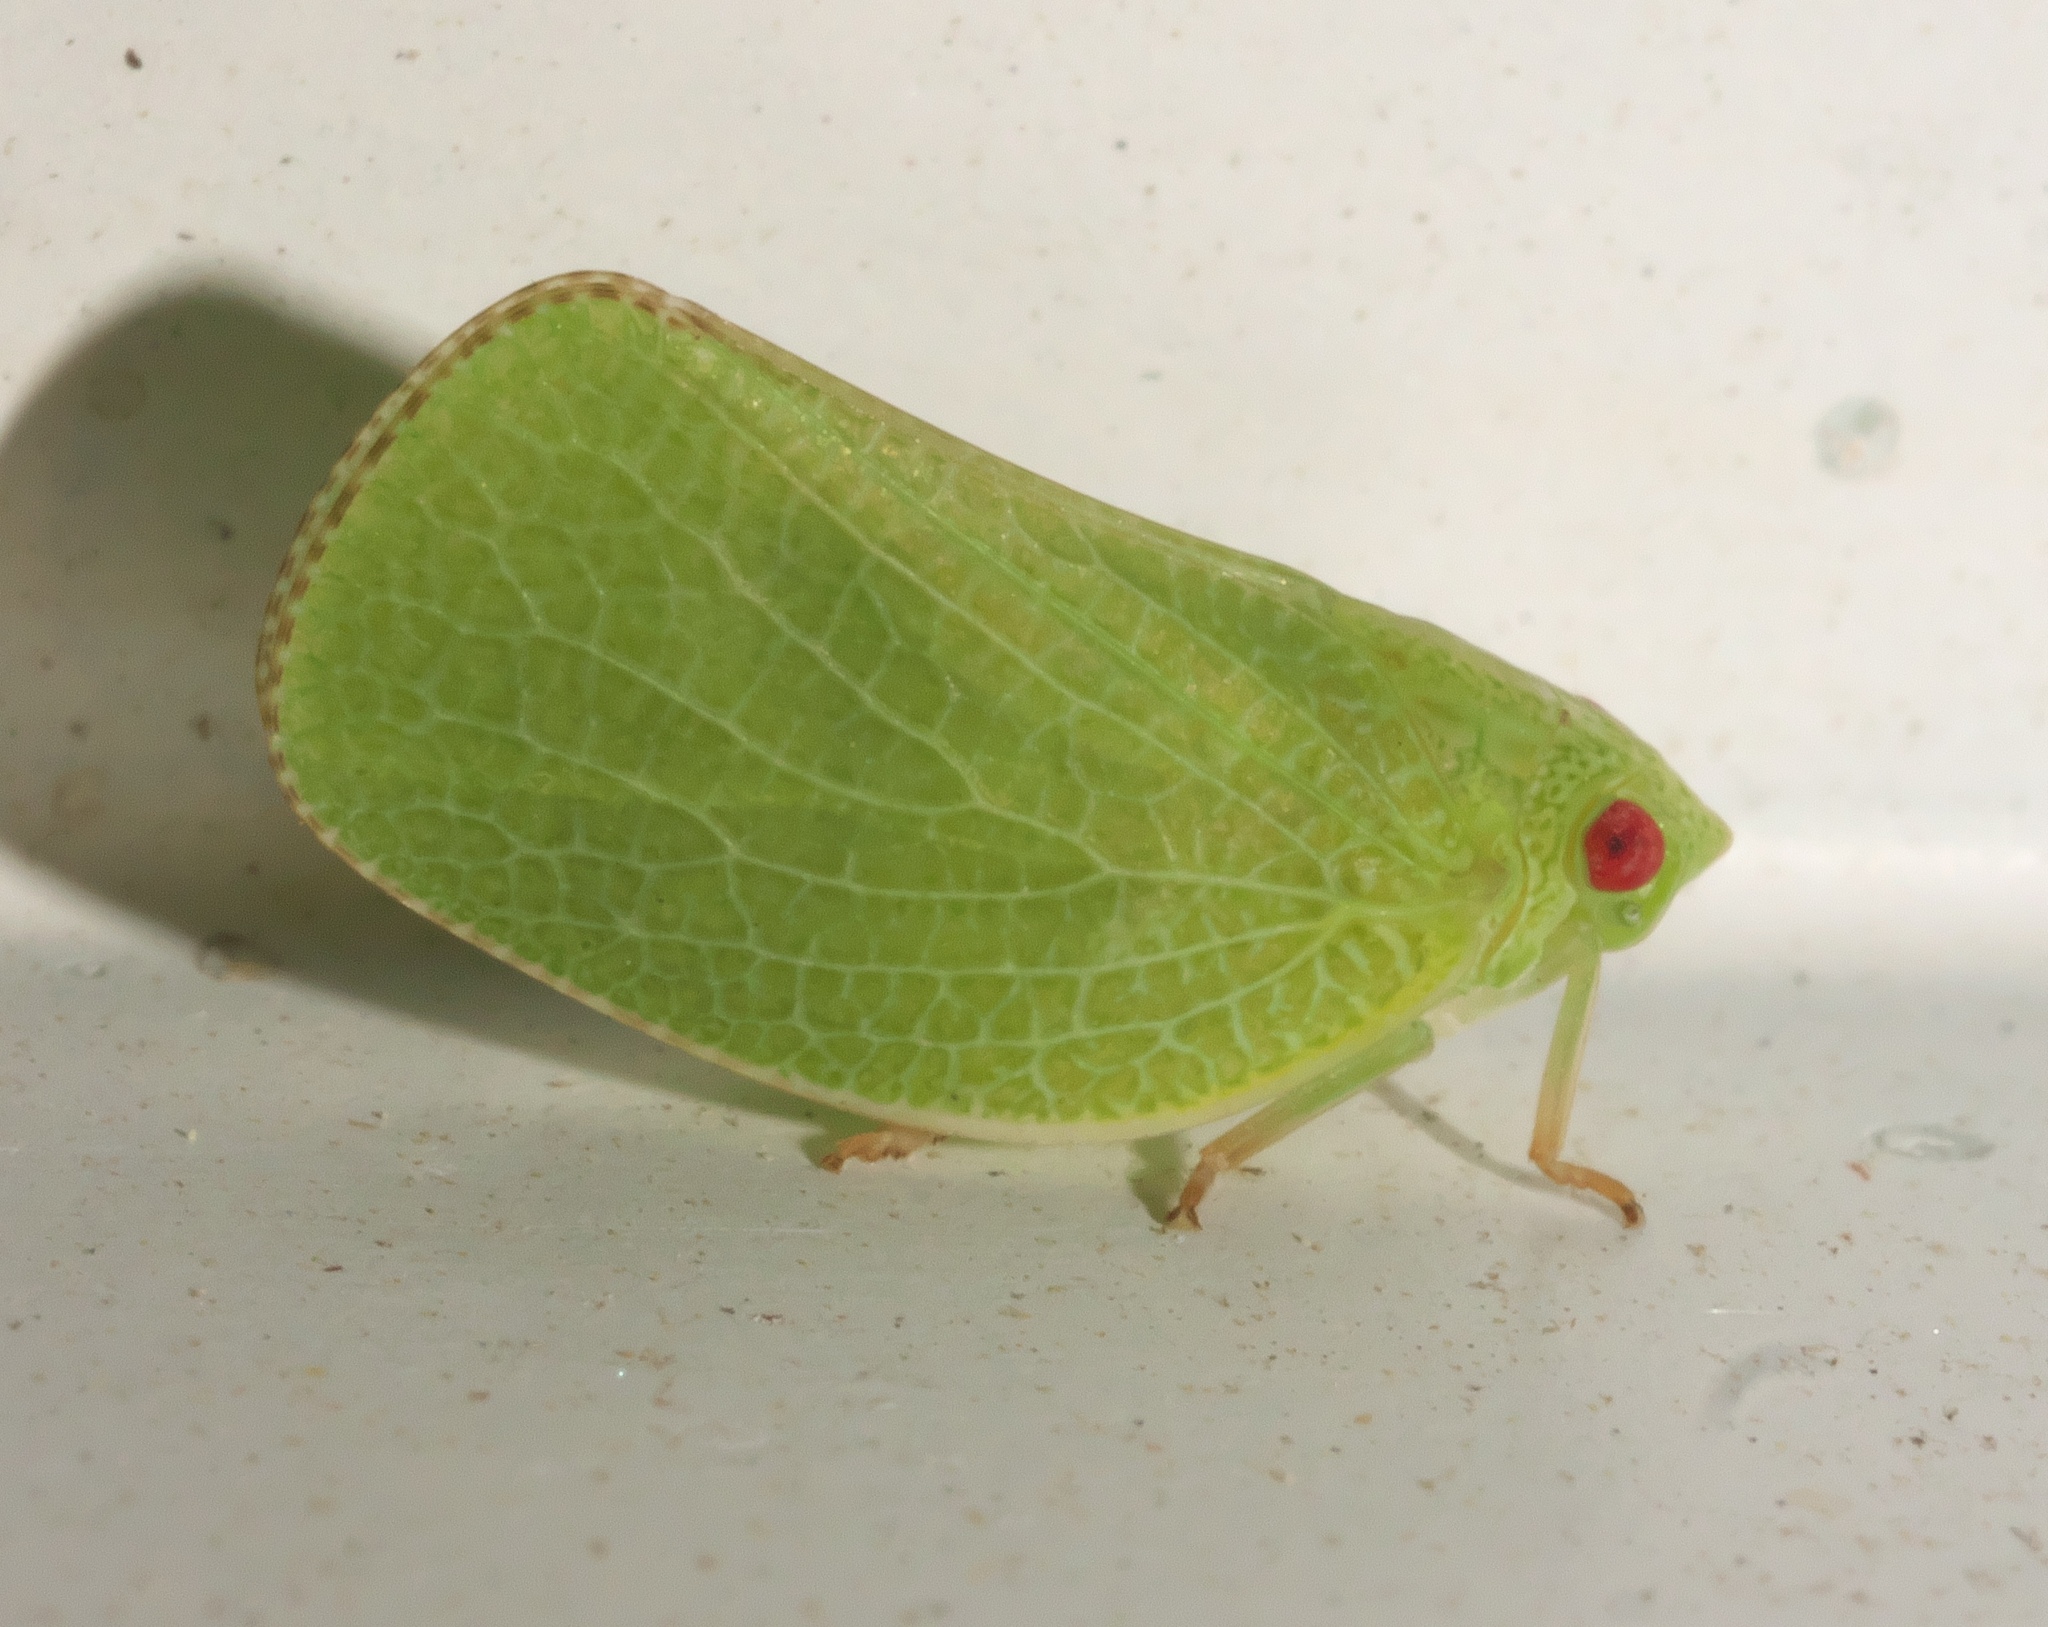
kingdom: Animalia
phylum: Arthropoda
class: Insecta
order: Hemiptera
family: Acanaloniidae
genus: Acanalonia
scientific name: Acanalonia conica
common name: Green cone-headed planthopper
